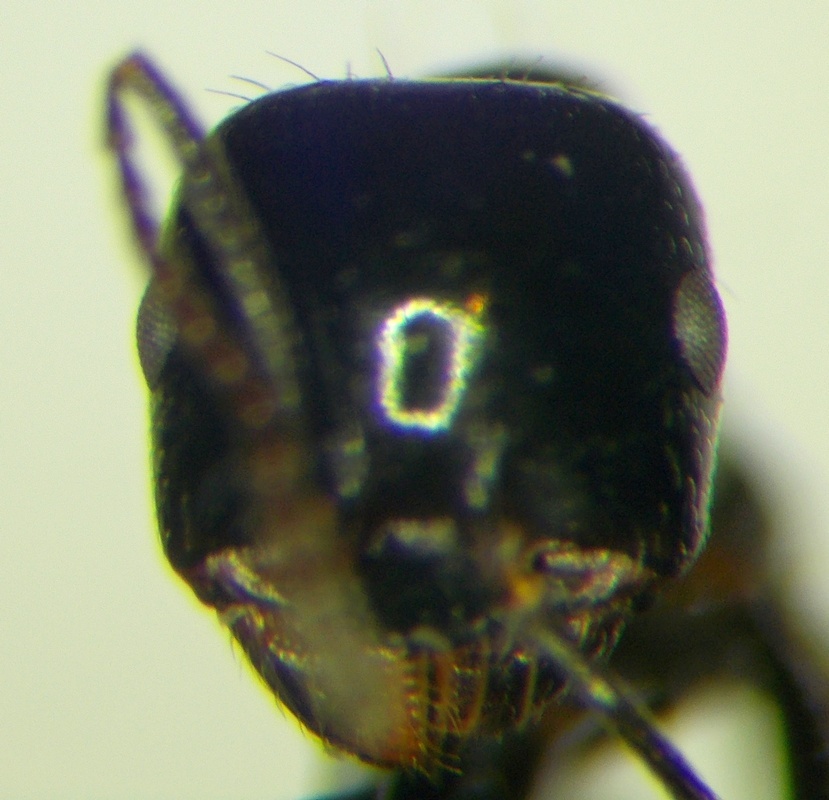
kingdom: Animalia
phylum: Arthropoda
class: Insecta
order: Hymenoptera
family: Formicidae
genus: Messor
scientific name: Messor syriacus
